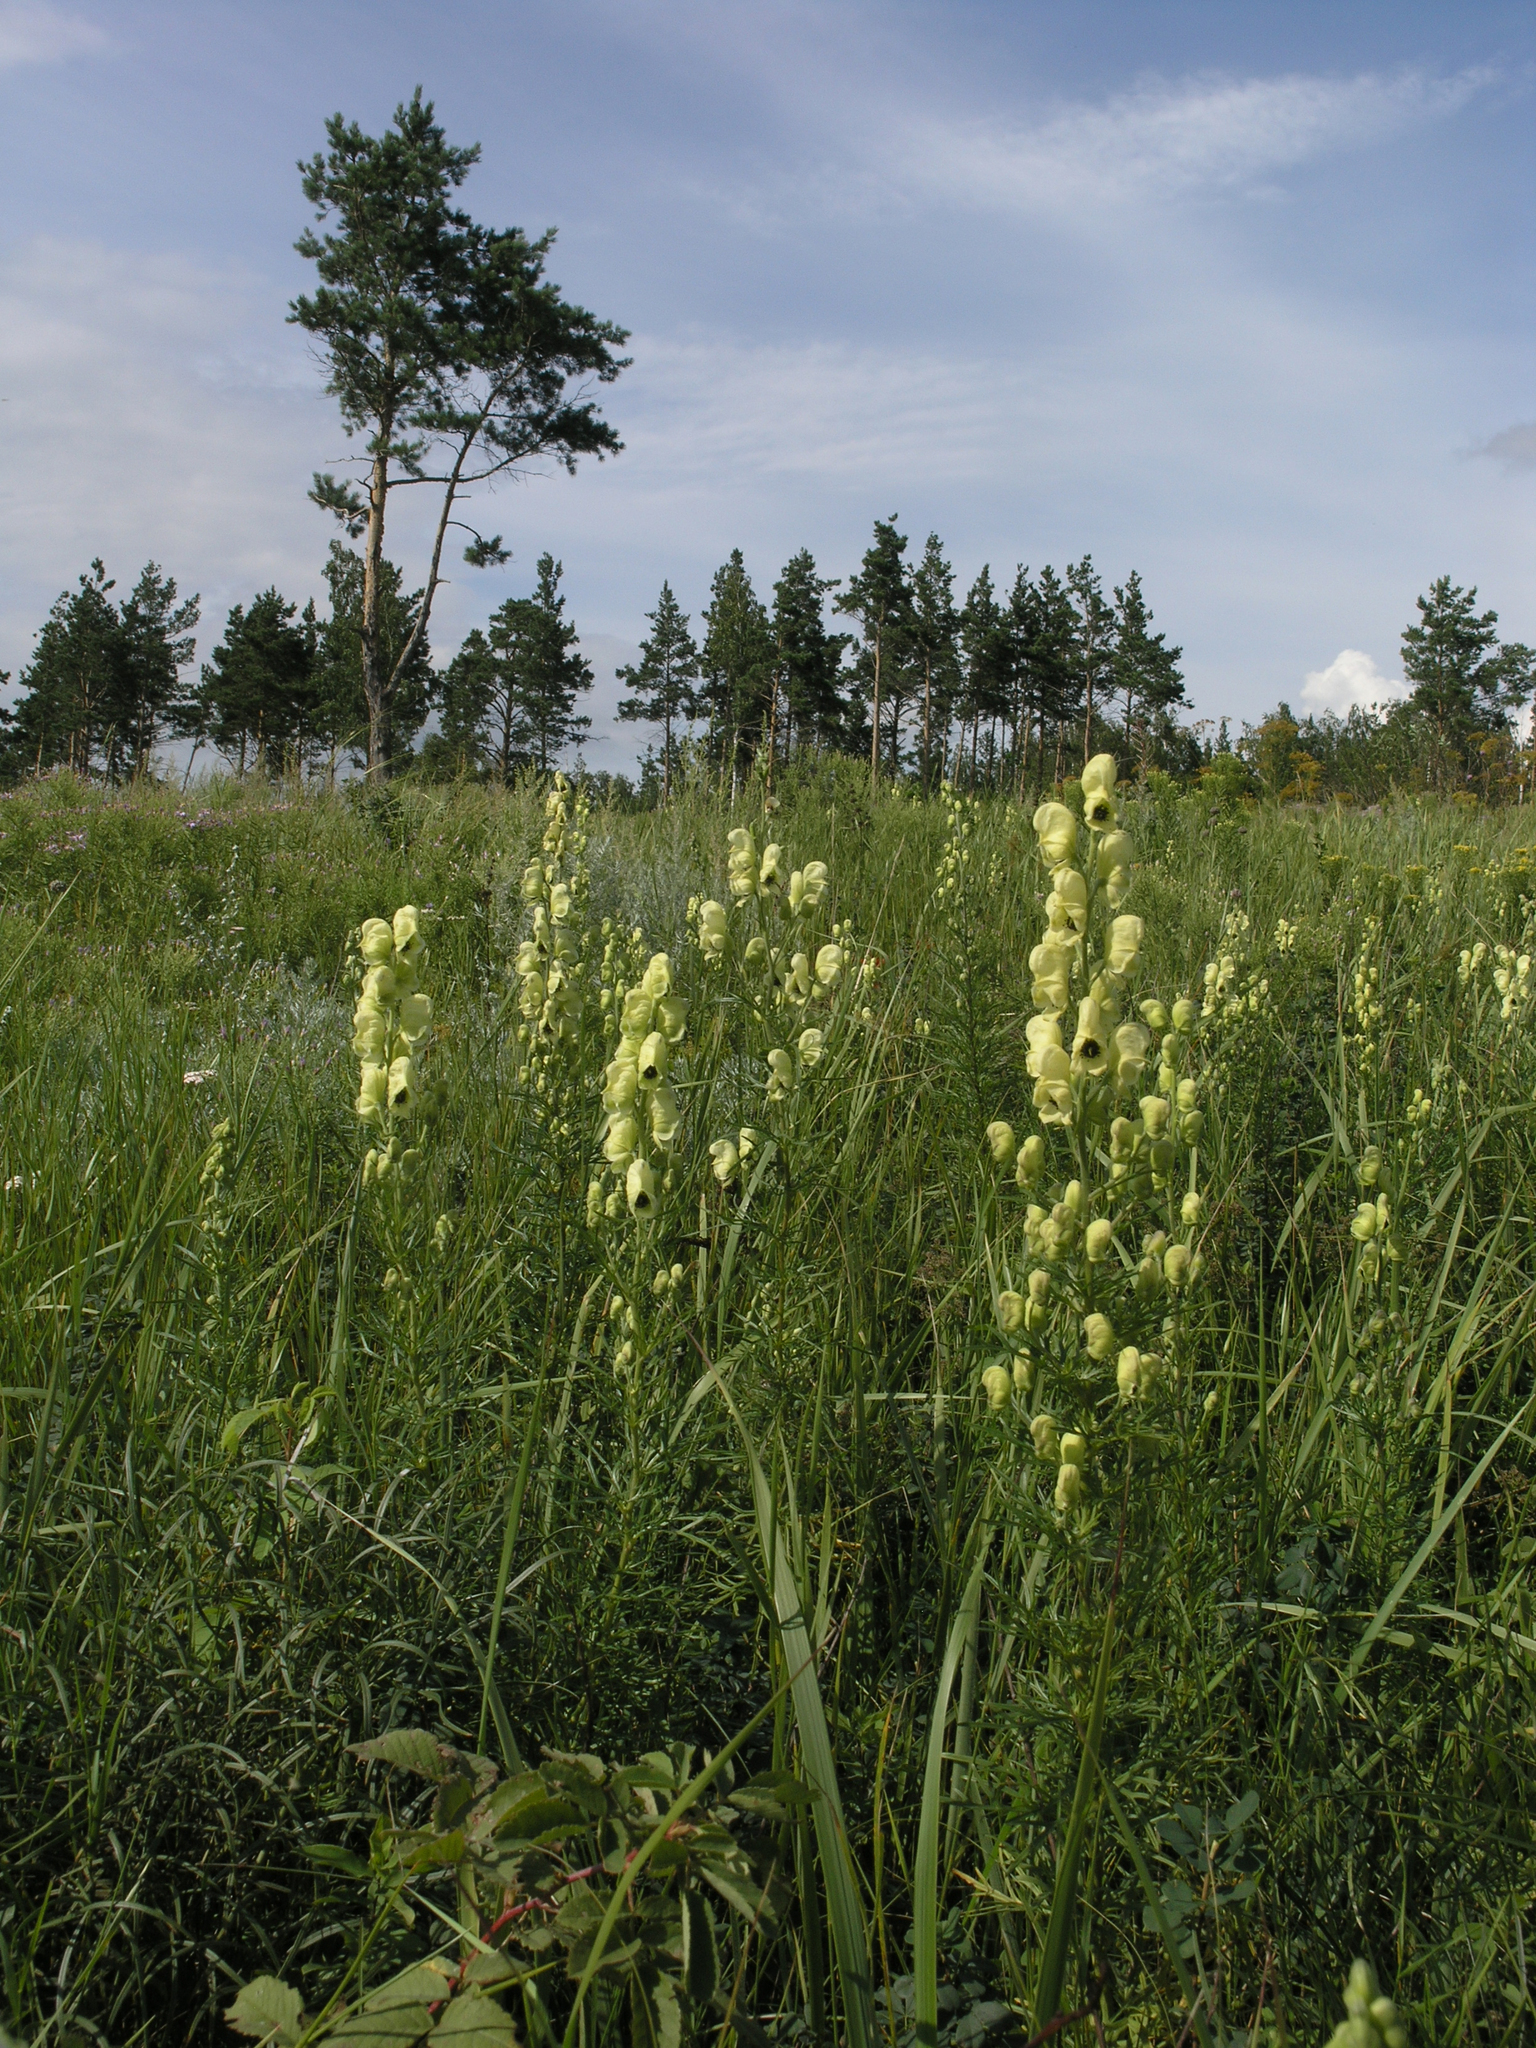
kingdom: Plantae
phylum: Tracheophyta
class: Magnoliopsida
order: Ranunculales
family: Ranunculaceae
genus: Aconitum
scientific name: Aconitum anthora
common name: Yellow monkshood
